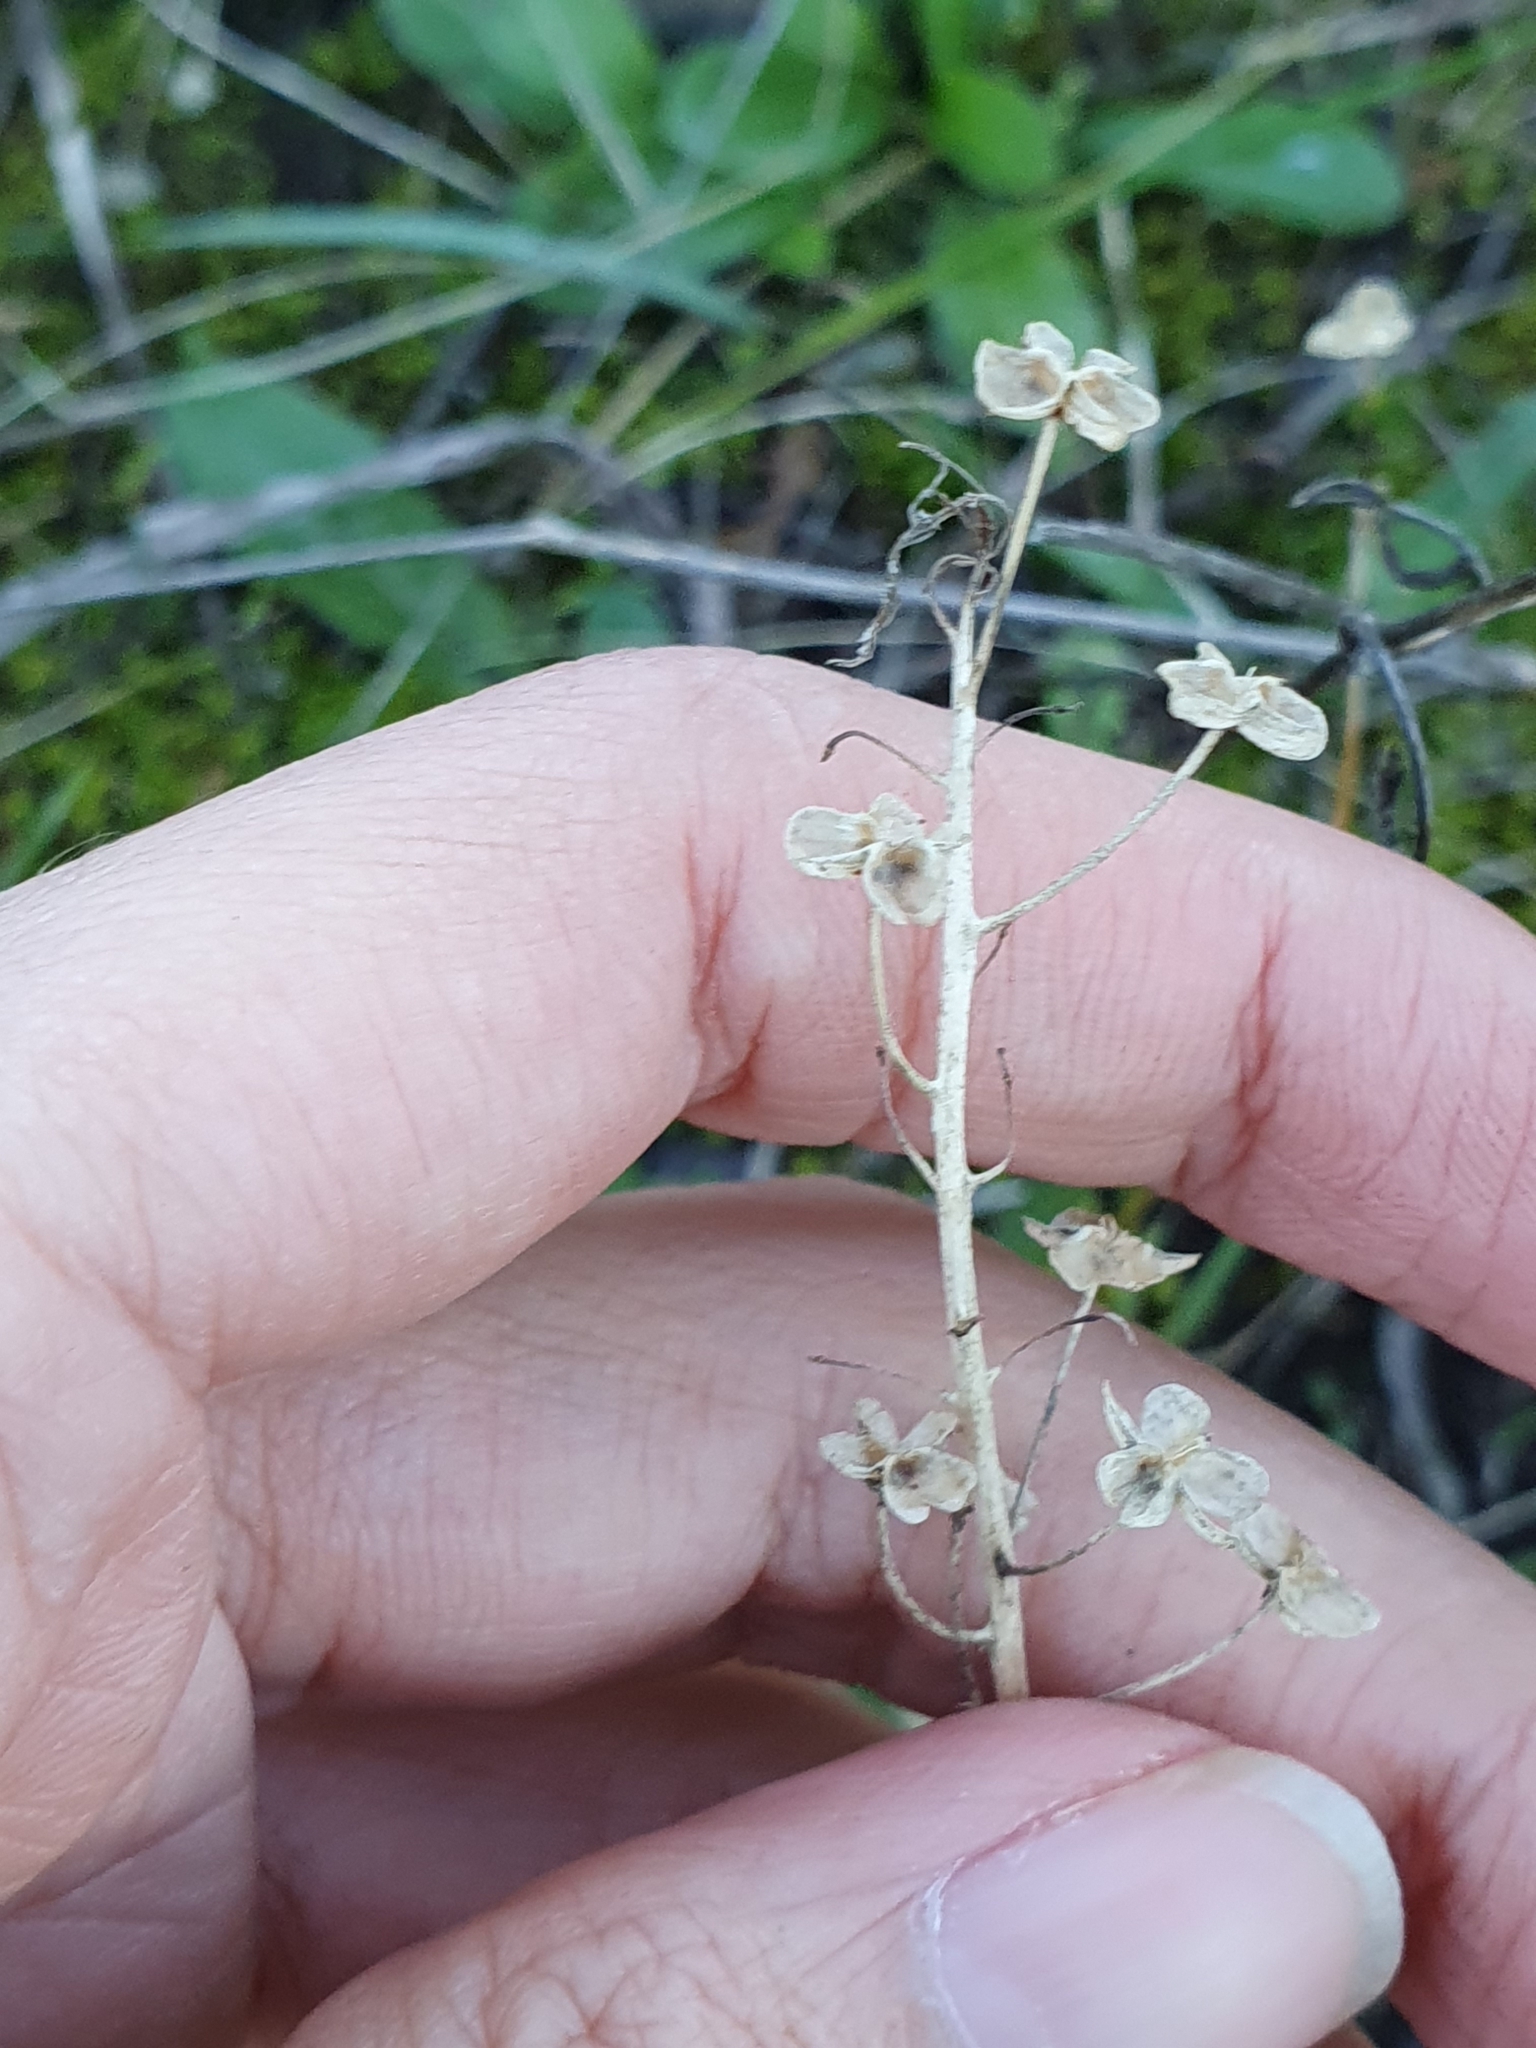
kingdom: Plantae
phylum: Tracheophyta
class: Liliopsida
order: Asparagales
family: Asparagaceae
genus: Barnardia
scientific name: Barnardia numidica
